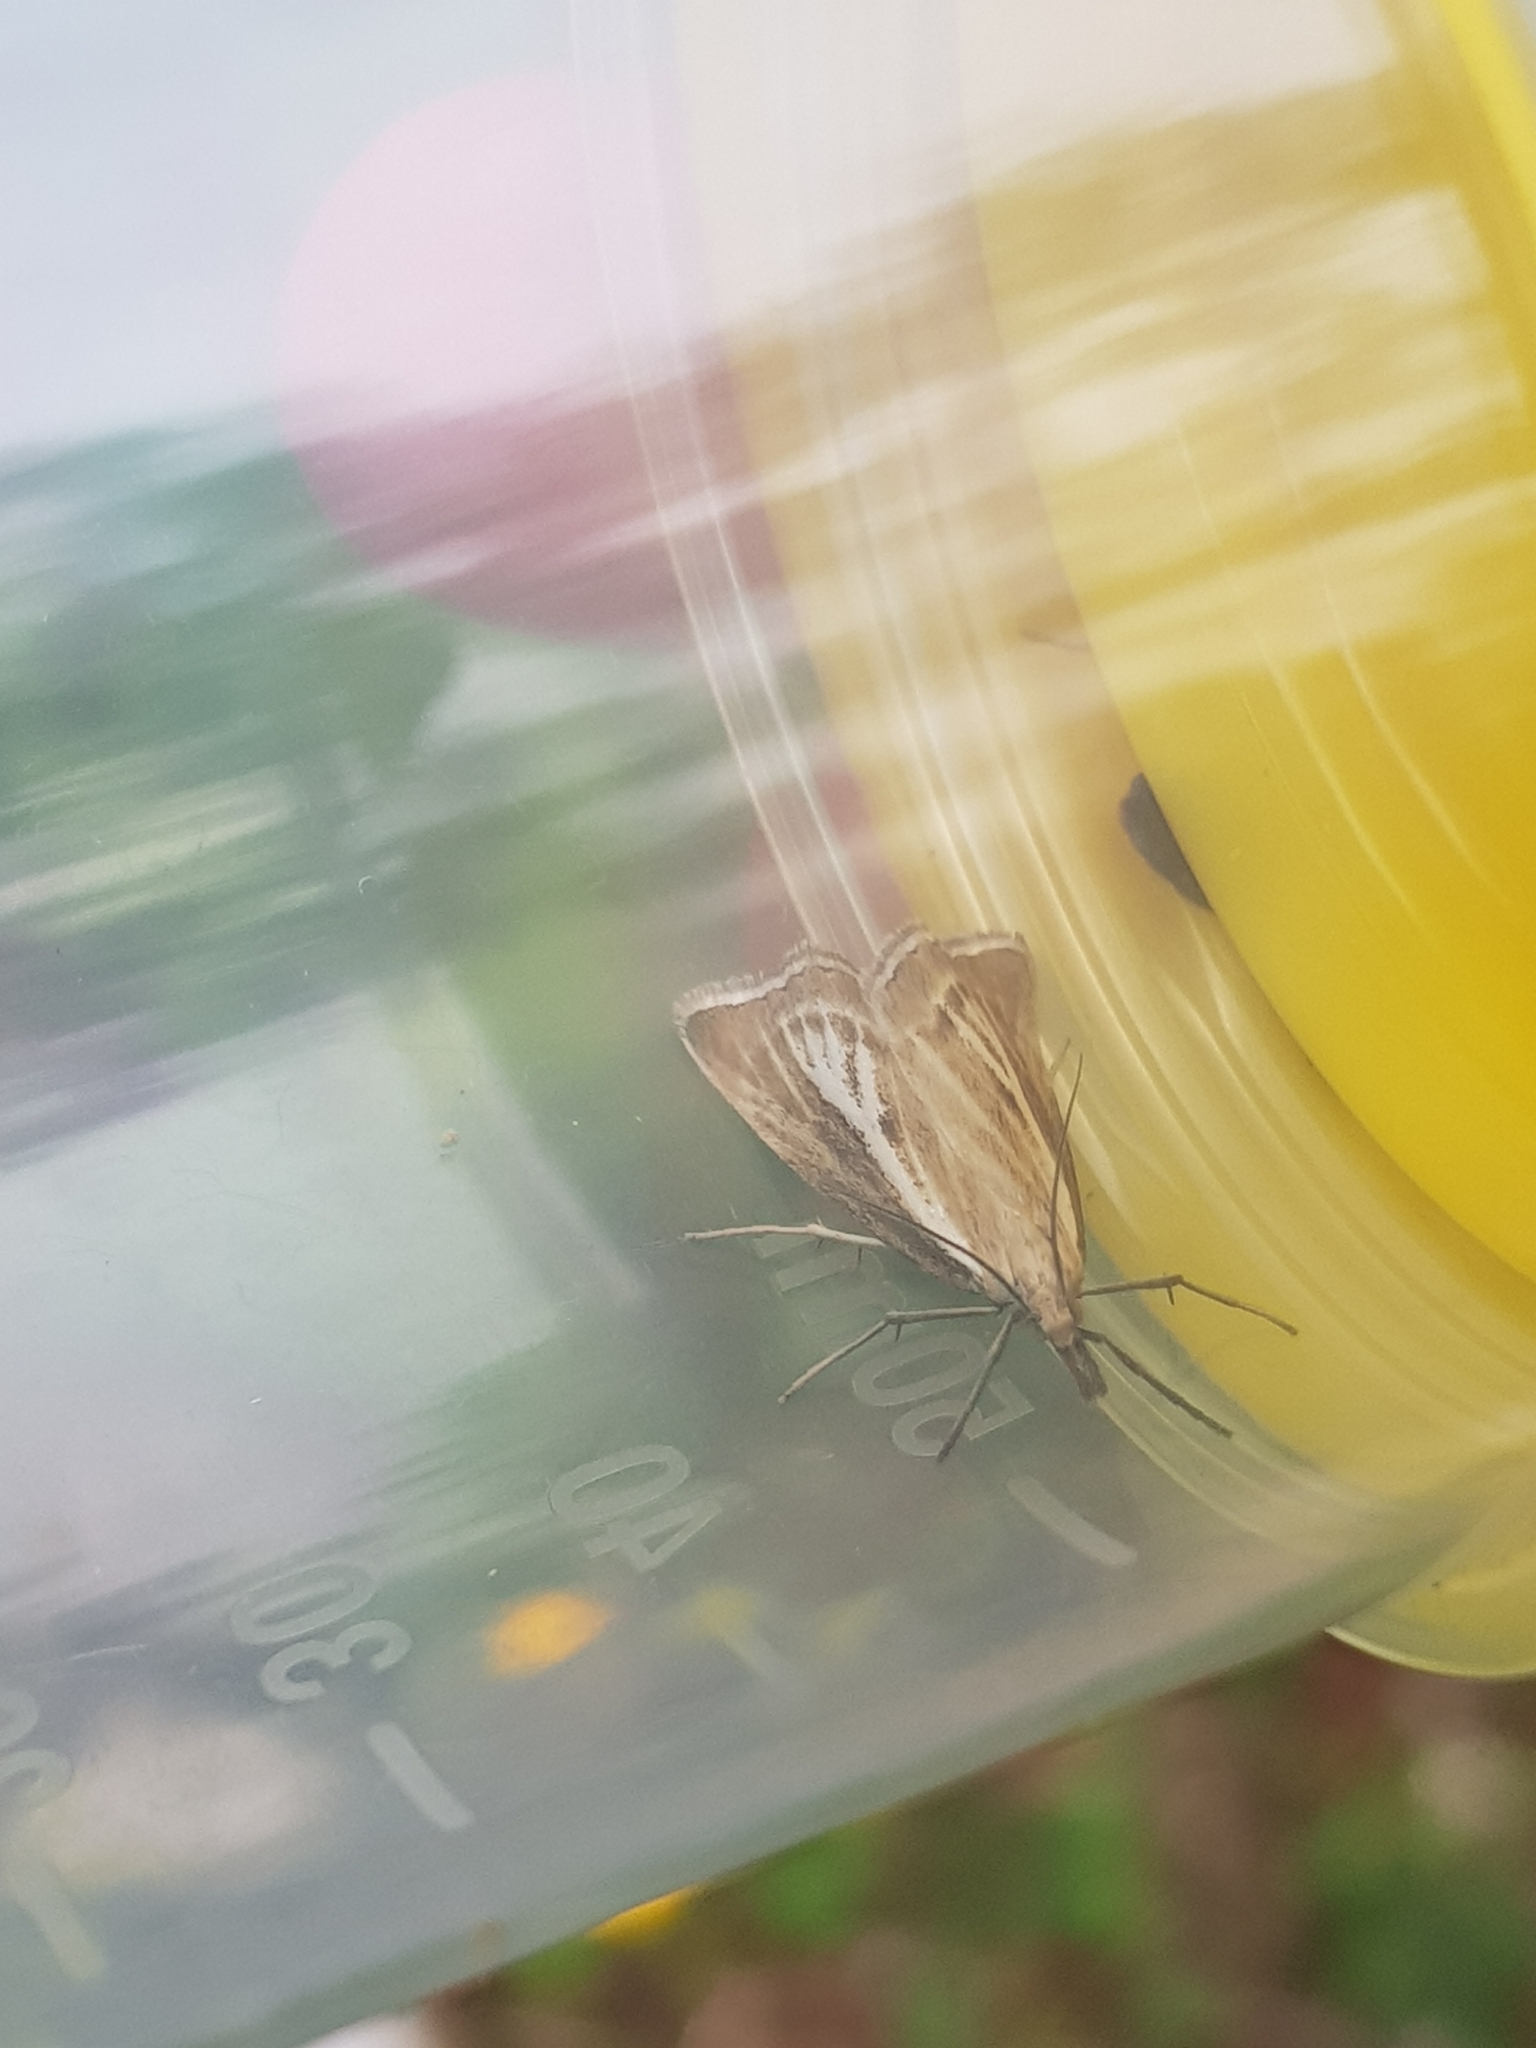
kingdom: Animalia
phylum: Arthropoda
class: Insecta
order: Lepidoptera
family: Crambidae
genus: Catoptria
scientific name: Catoptria combinella
